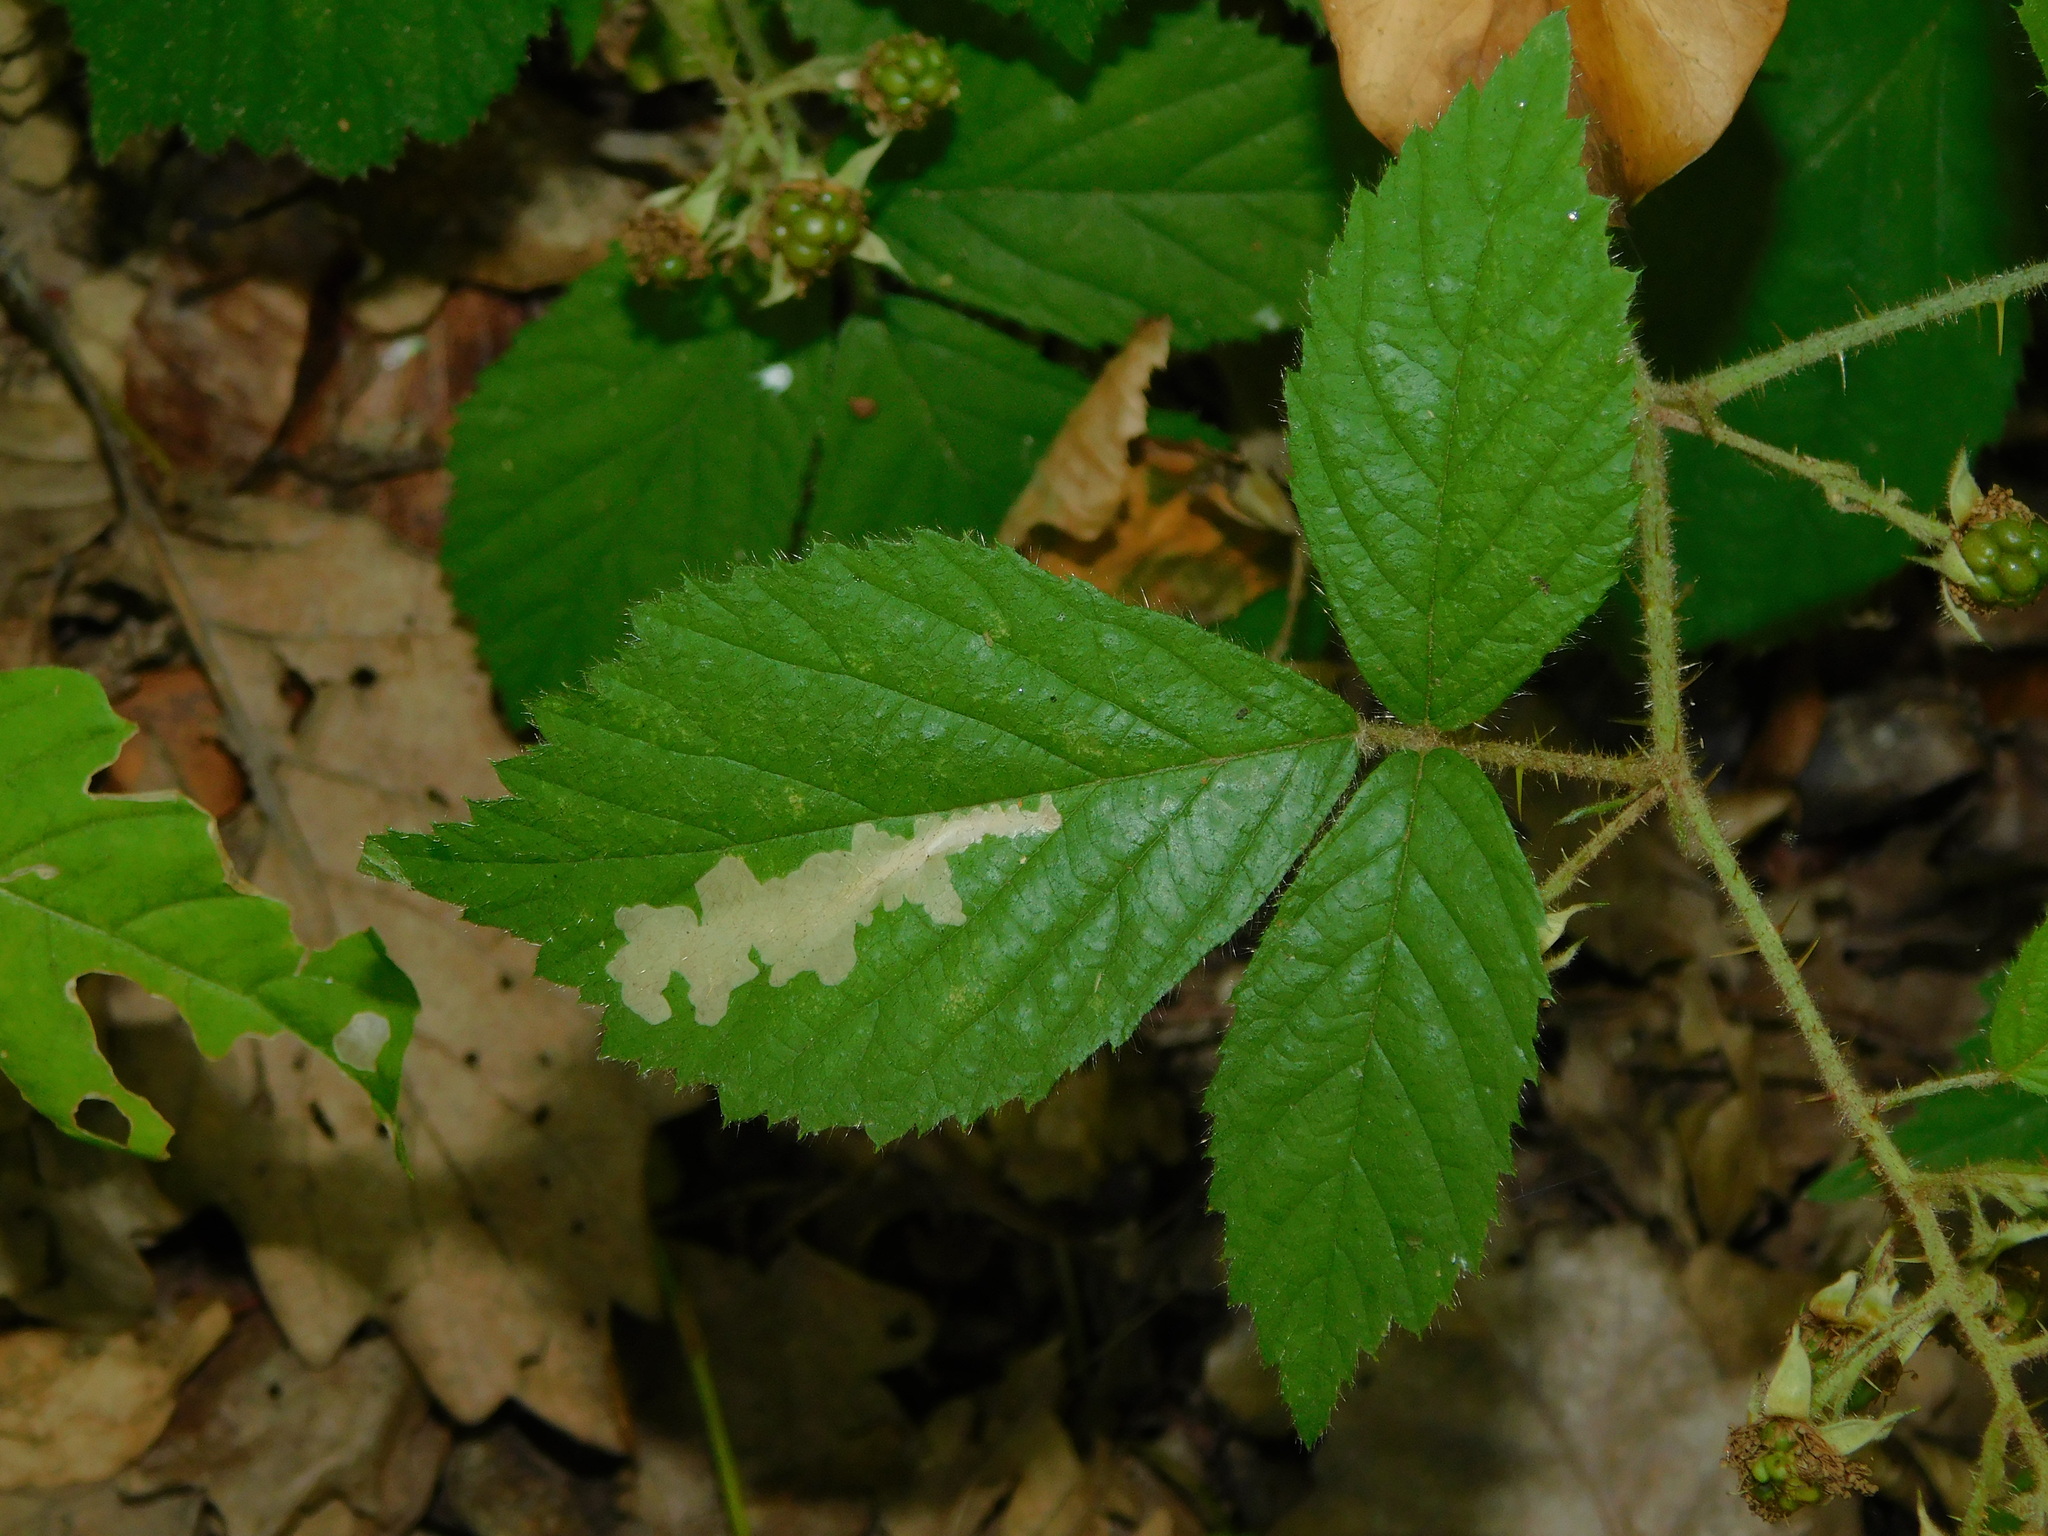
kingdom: Animalia
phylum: Arthropoda
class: Insecta
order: Lepidoptera
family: Tischeriidae
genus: Coptotriche
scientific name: Coptotriche marginea
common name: Bordered carl
